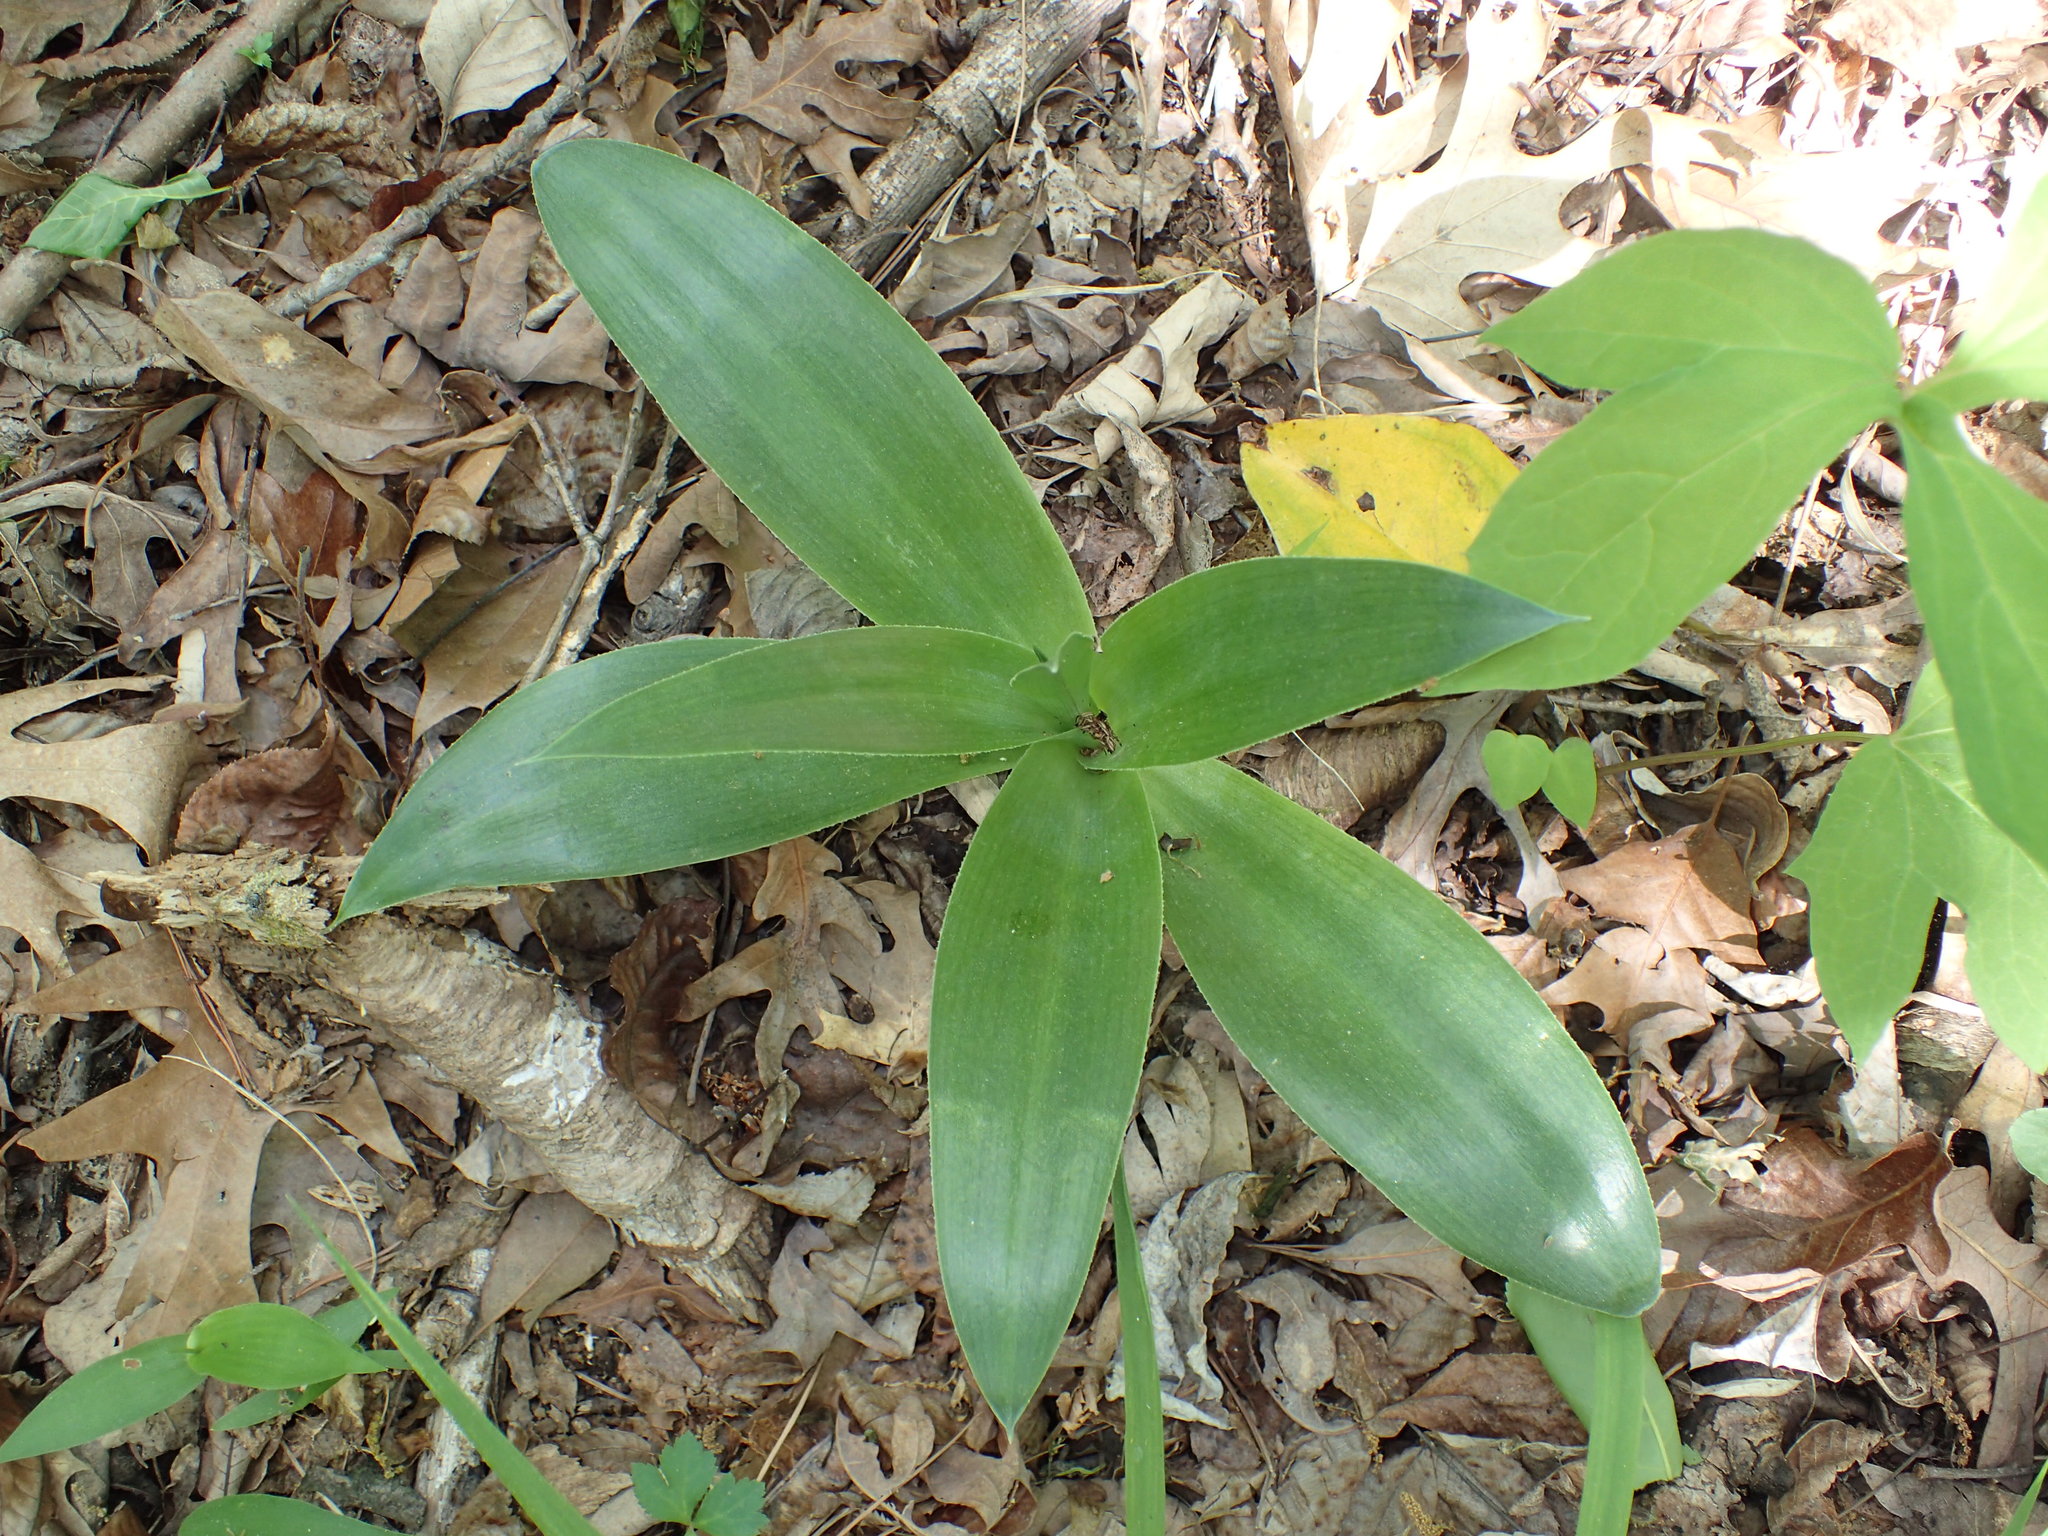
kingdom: Plantae
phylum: Tracheophyta
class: Liliopsida
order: Asparagales
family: Asparagaceae
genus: Agave
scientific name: Agave virginica
